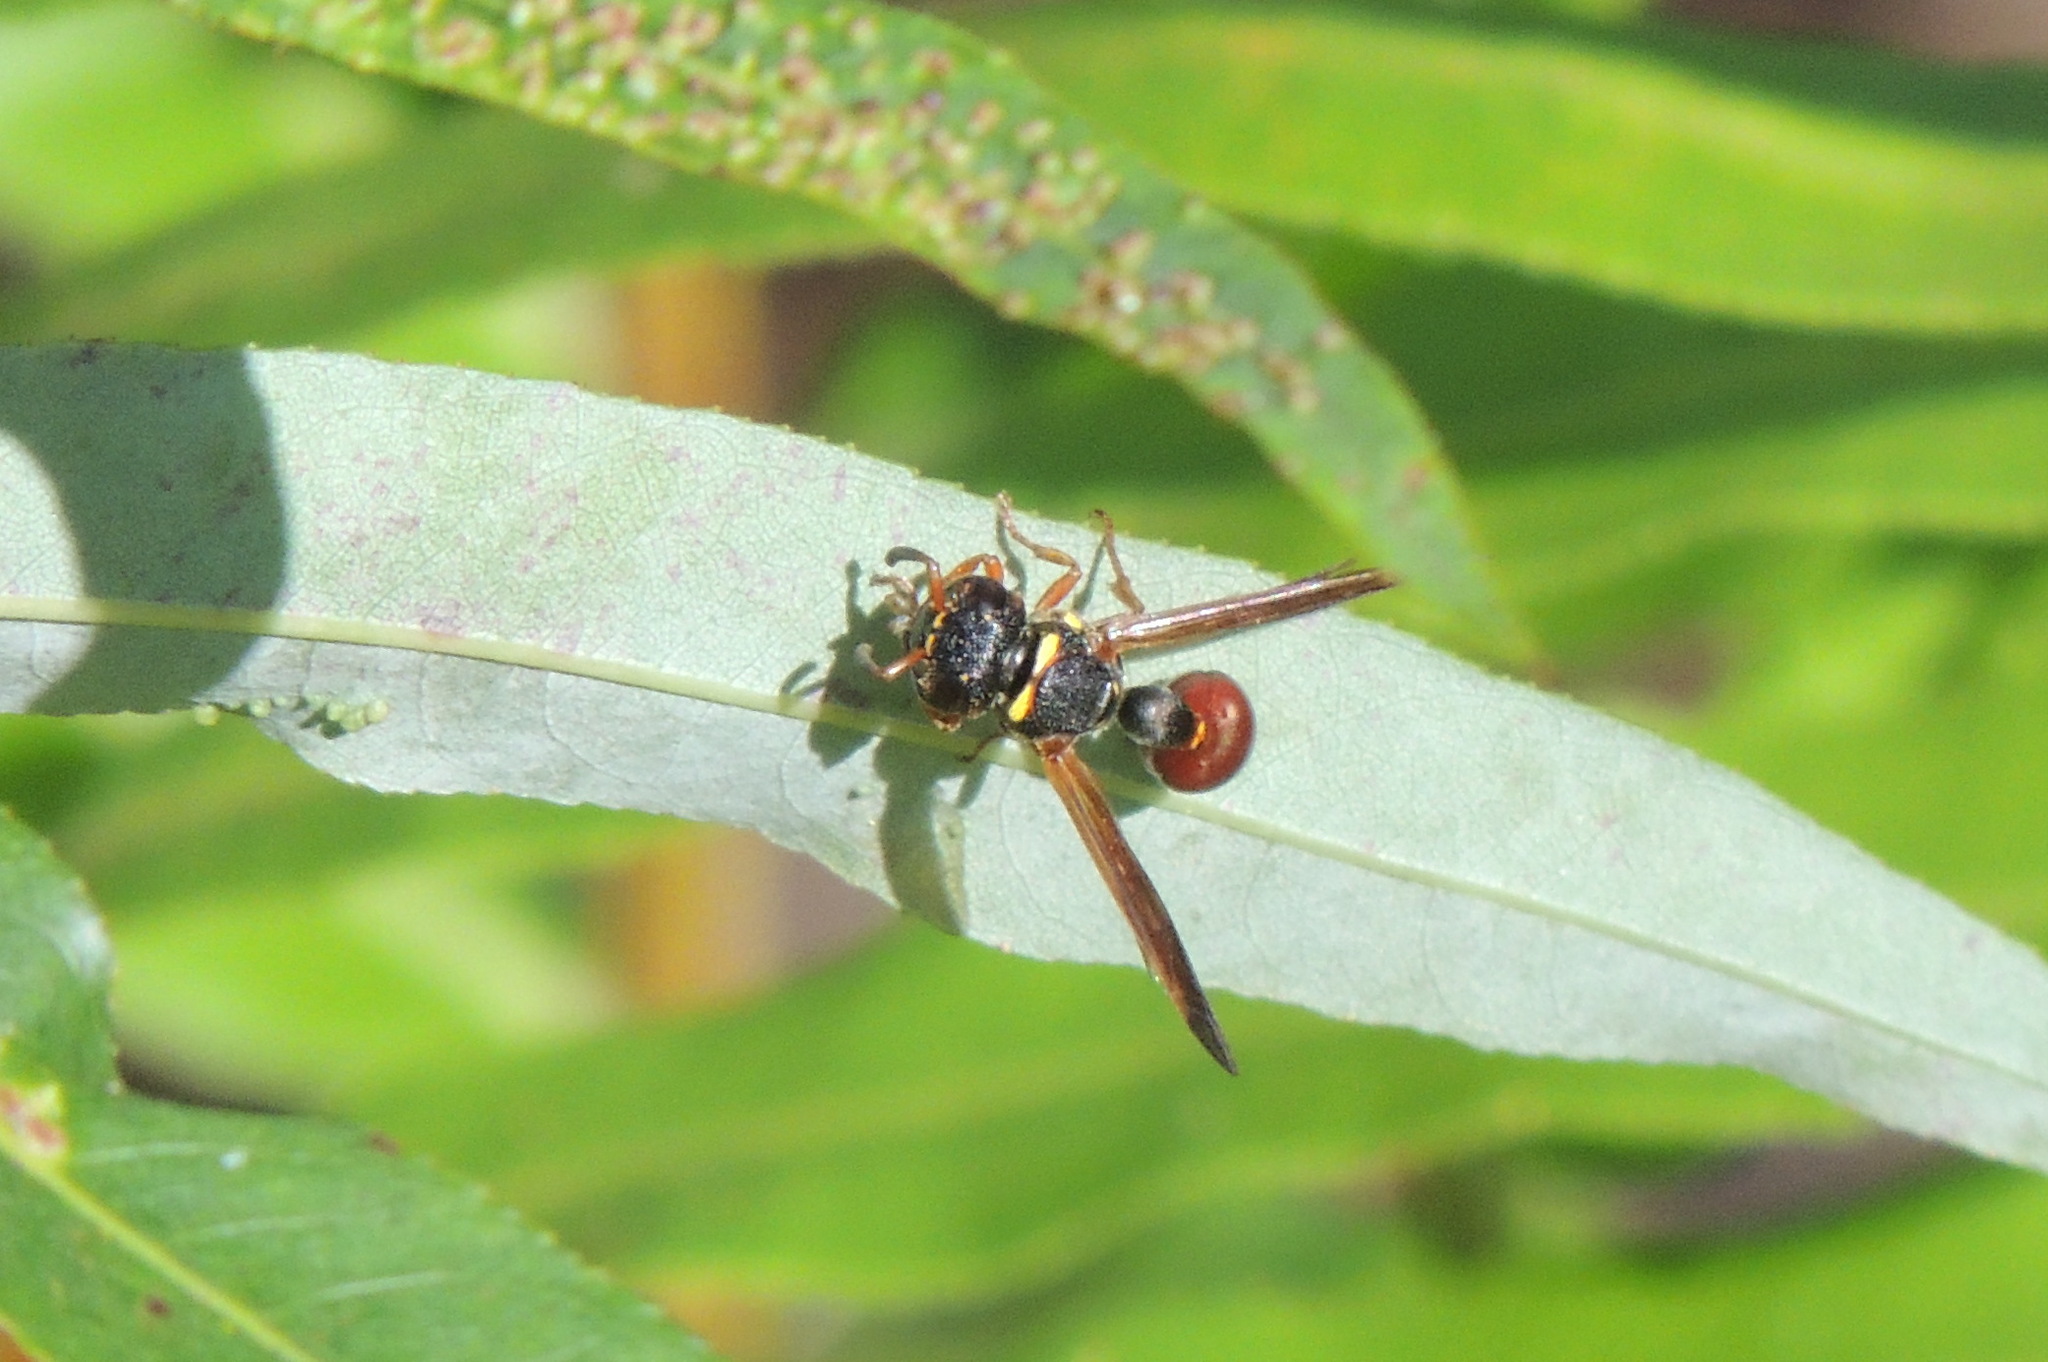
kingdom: Animalia
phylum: Arthropoda
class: Insecta
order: Hymenoptera
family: Eumenidae
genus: Zethus
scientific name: Zethus slossonae
